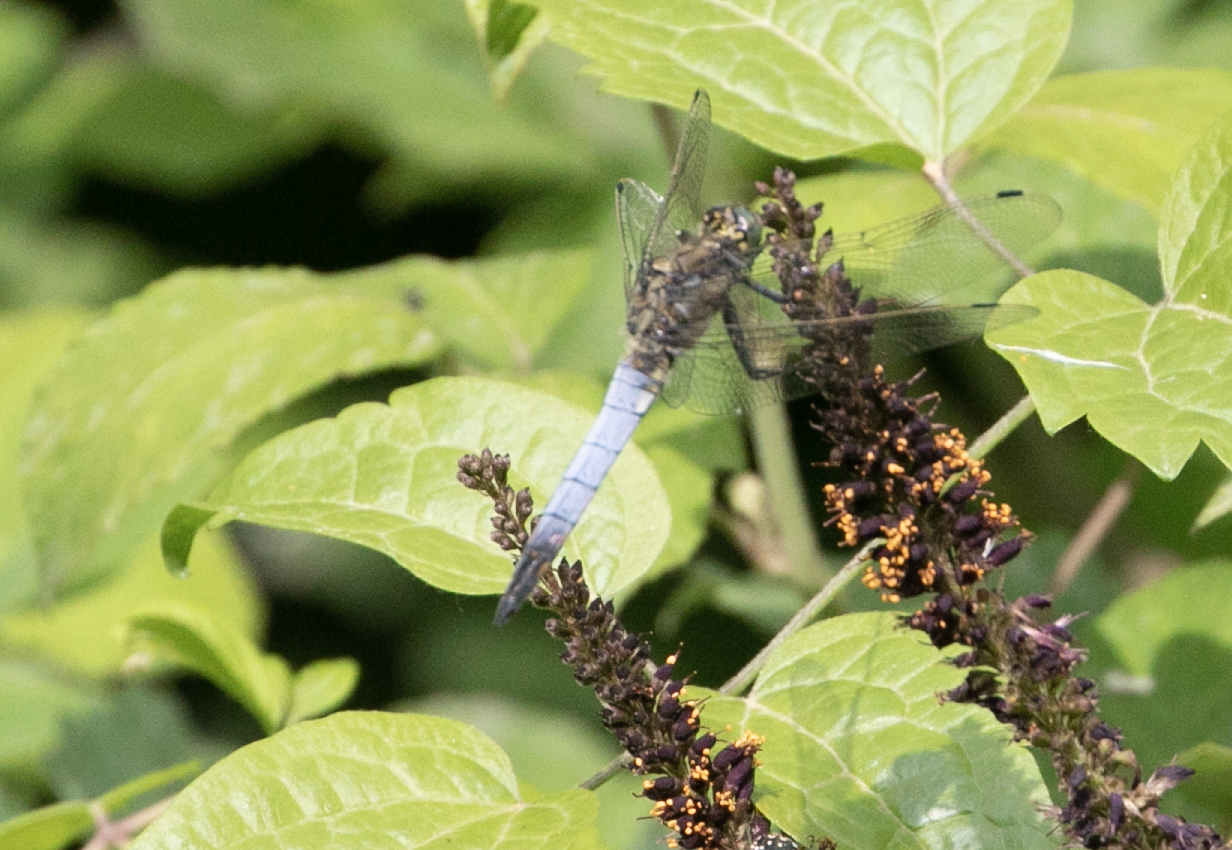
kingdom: Animalia
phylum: Arthropoda
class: Insecta
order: Odonata
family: Libellulidae
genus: Orthetrum
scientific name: Orthetrum cancellatum
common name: Black-tailed skimmer
